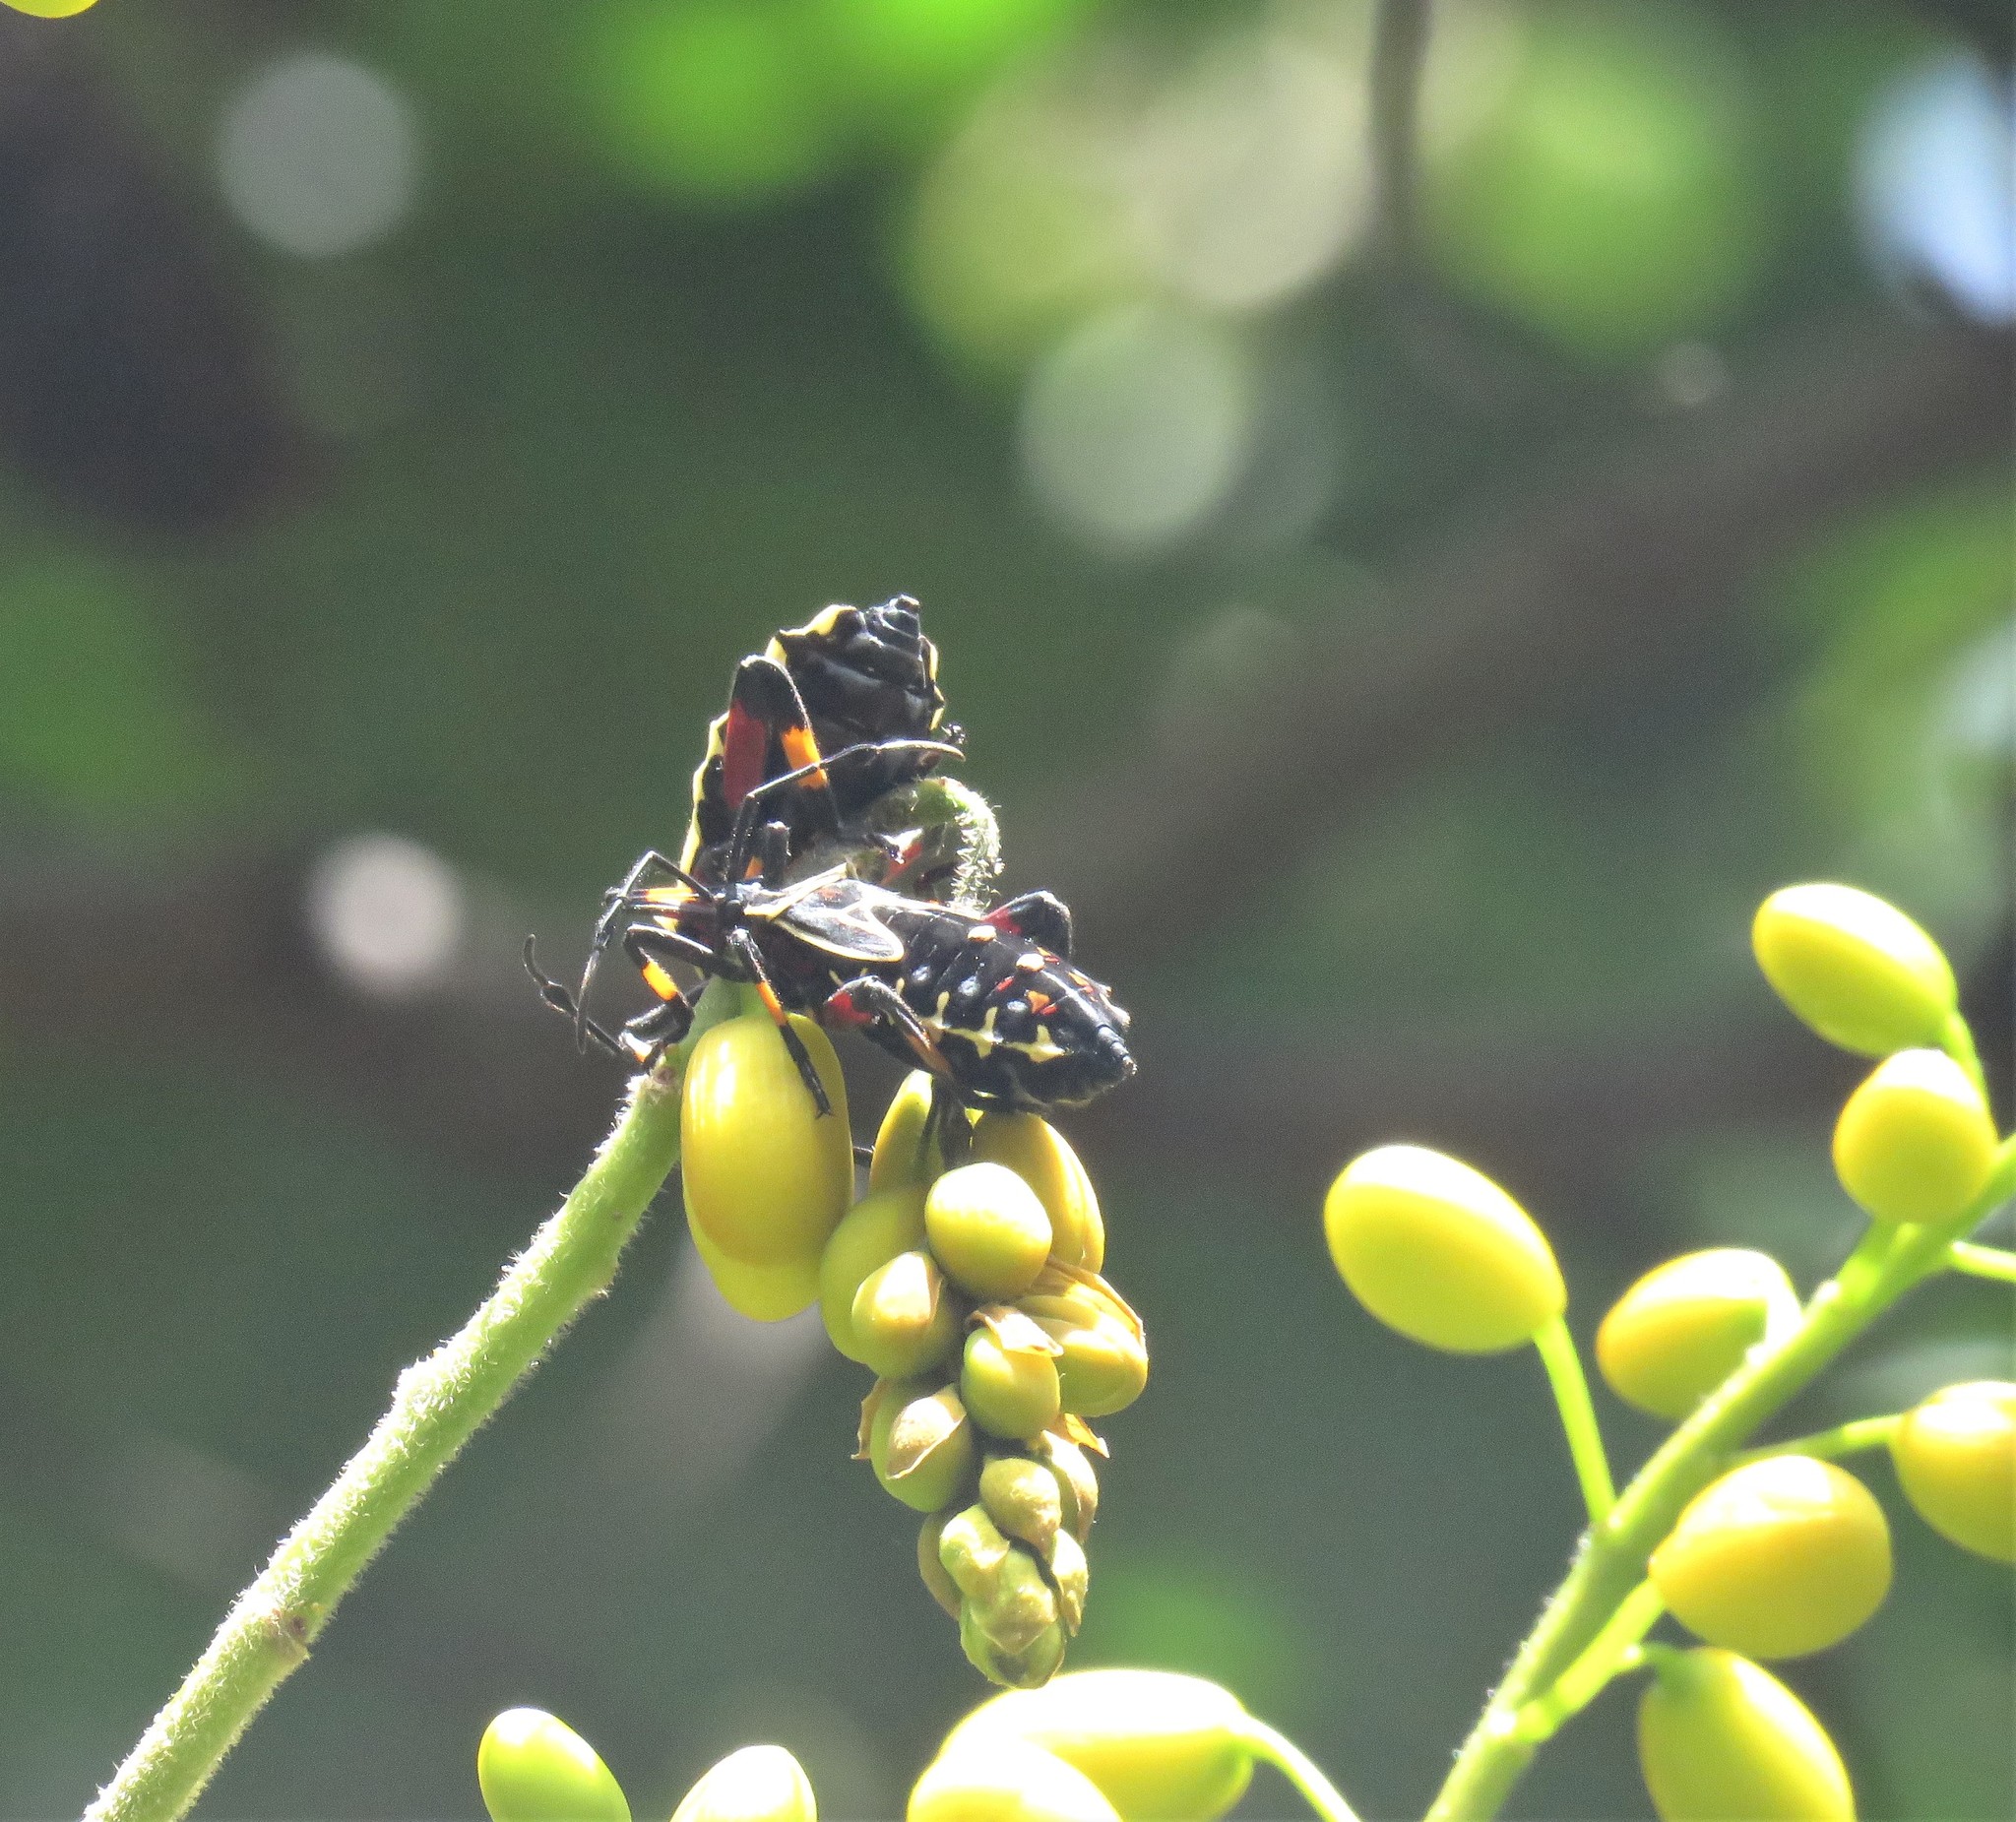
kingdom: Plantae
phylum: Tracheophyta
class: Magnoliopsida
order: Fabales
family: Fabaceae
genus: Senna
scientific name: Senna viarum
